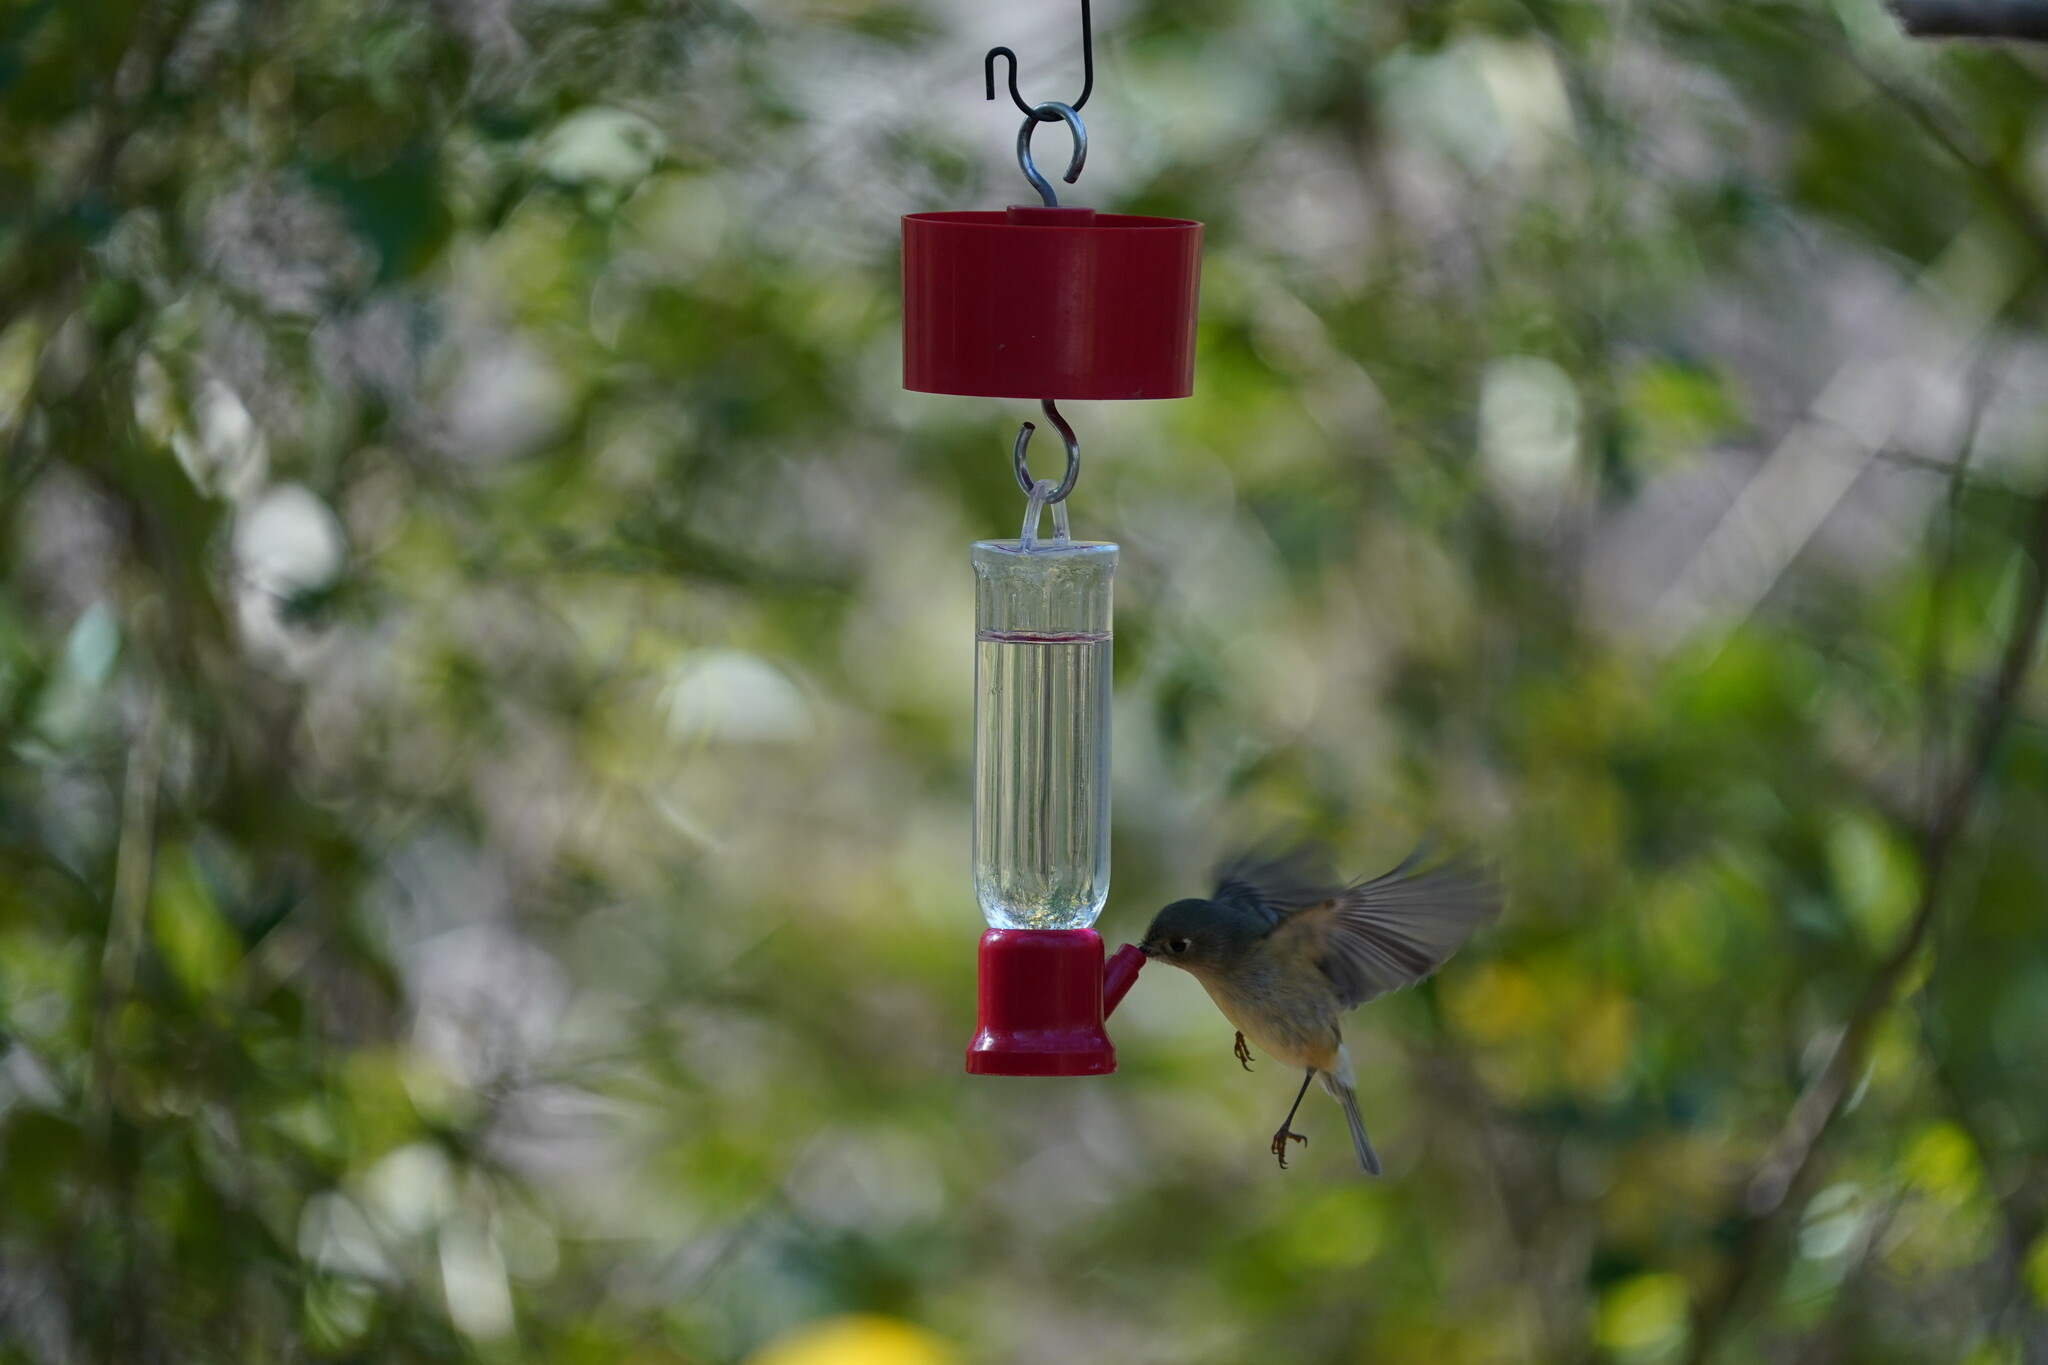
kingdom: Animalia
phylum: Chordata
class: Aves
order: Passeriformes
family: Regulidae
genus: Regulus
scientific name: Regulus calendula
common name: Ruby-crowned kinglet
